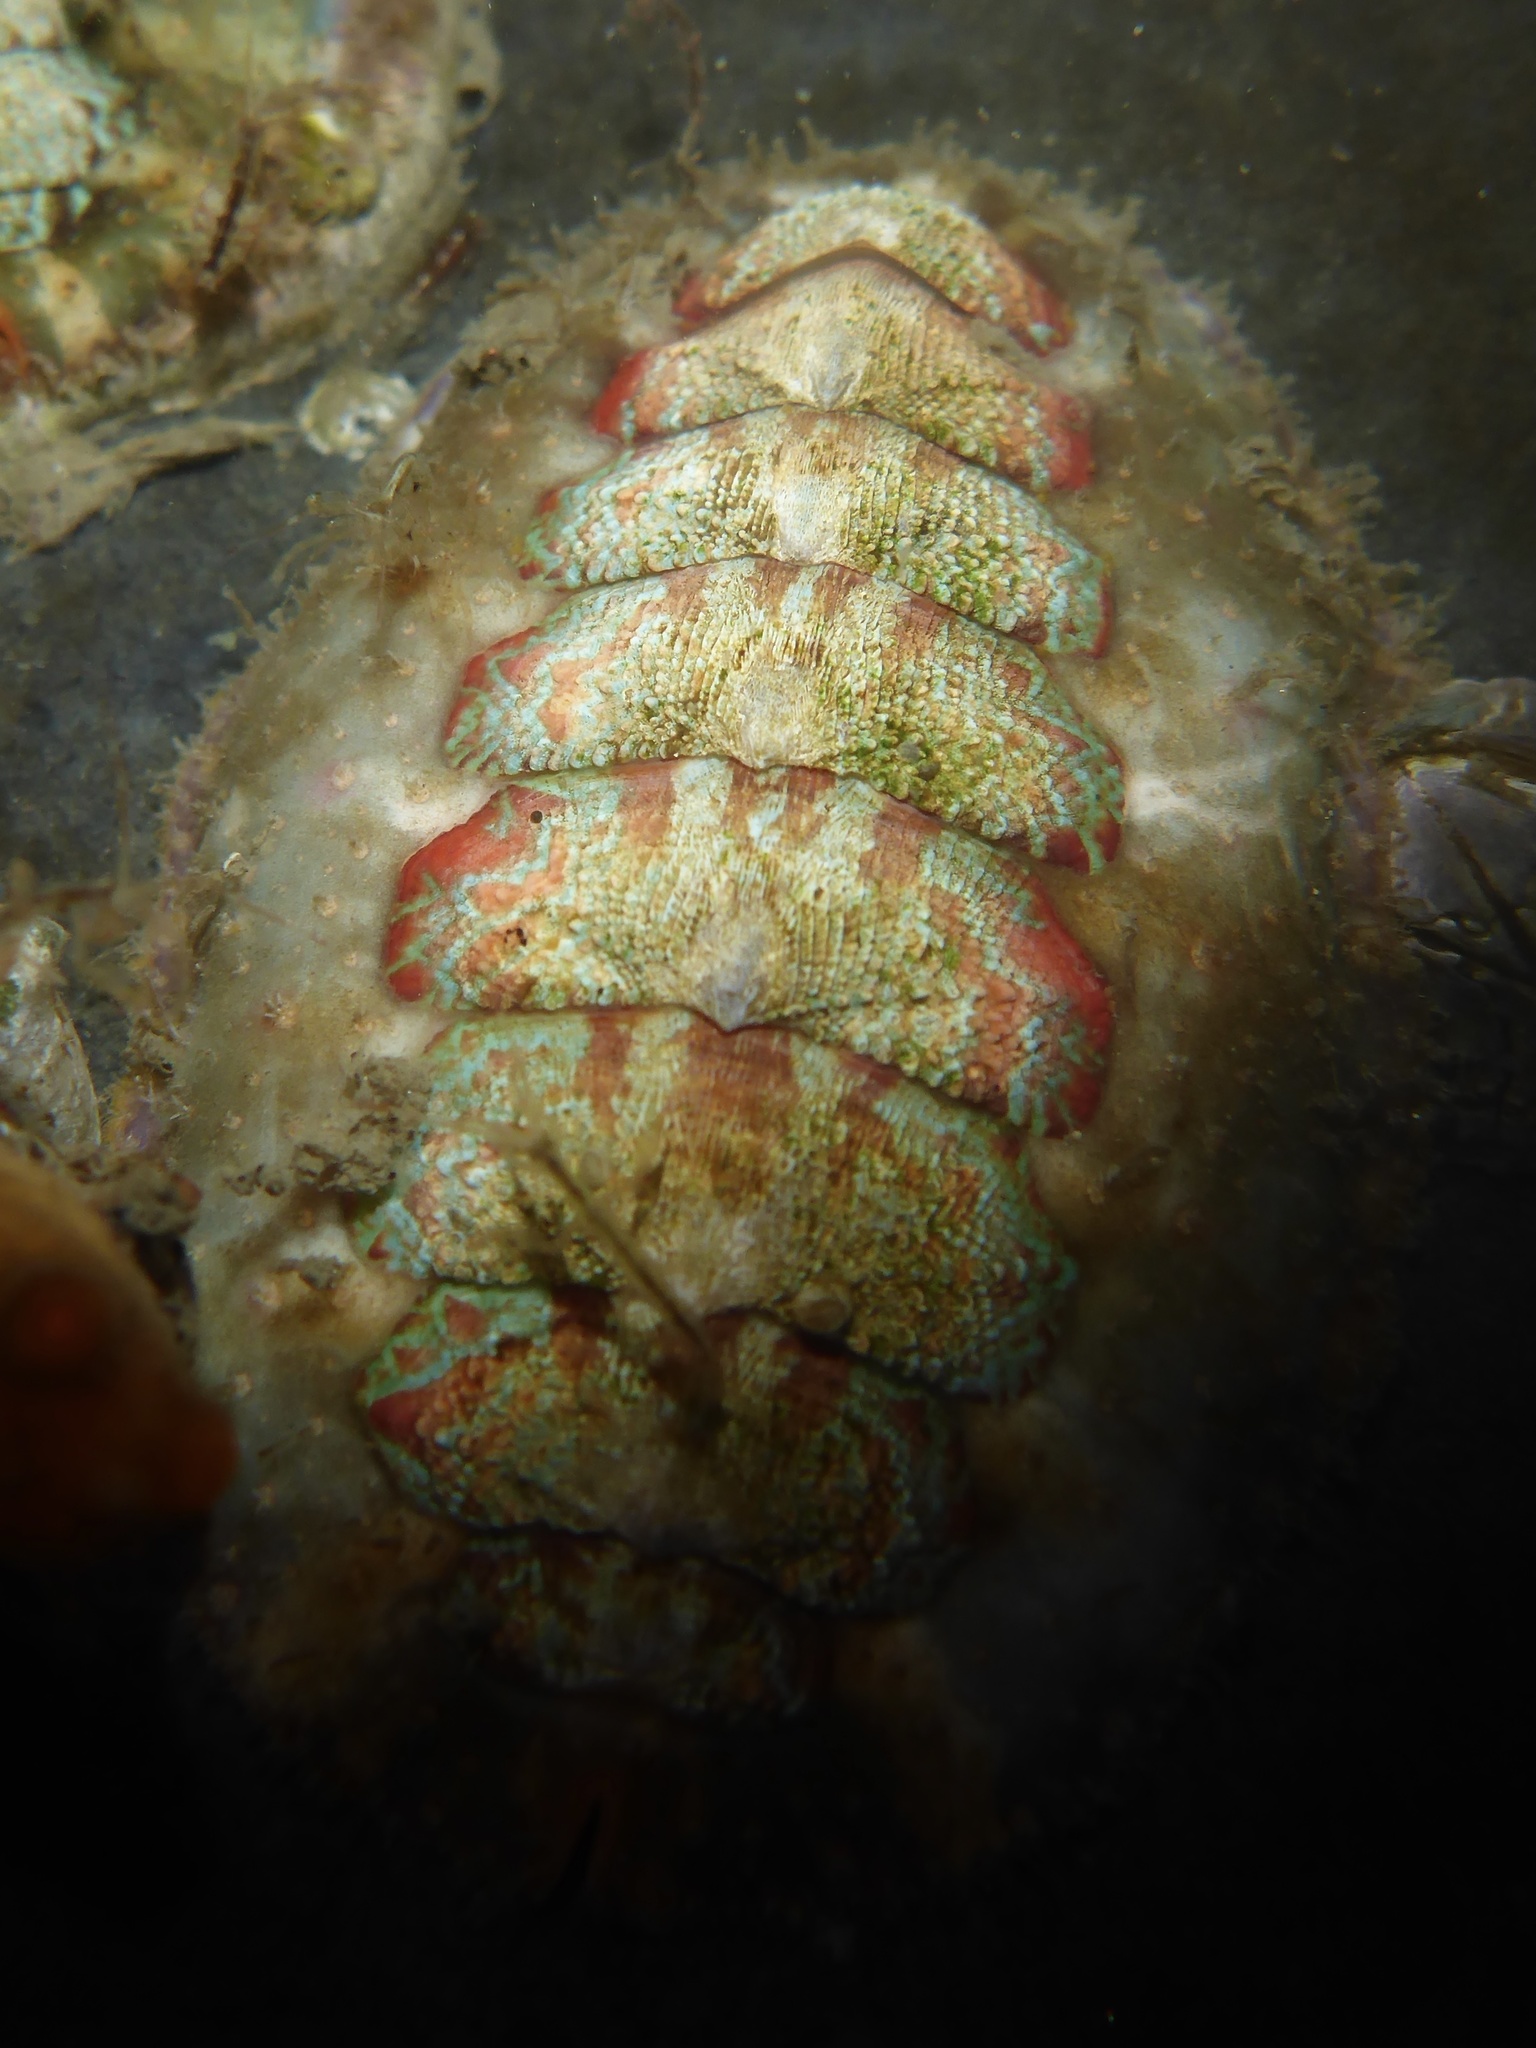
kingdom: Animalia
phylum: Mollusca
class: Polyplacophora
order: Chitonida
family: Mopaliidae
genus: Mopalia
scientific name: Mopalia spectabilis
